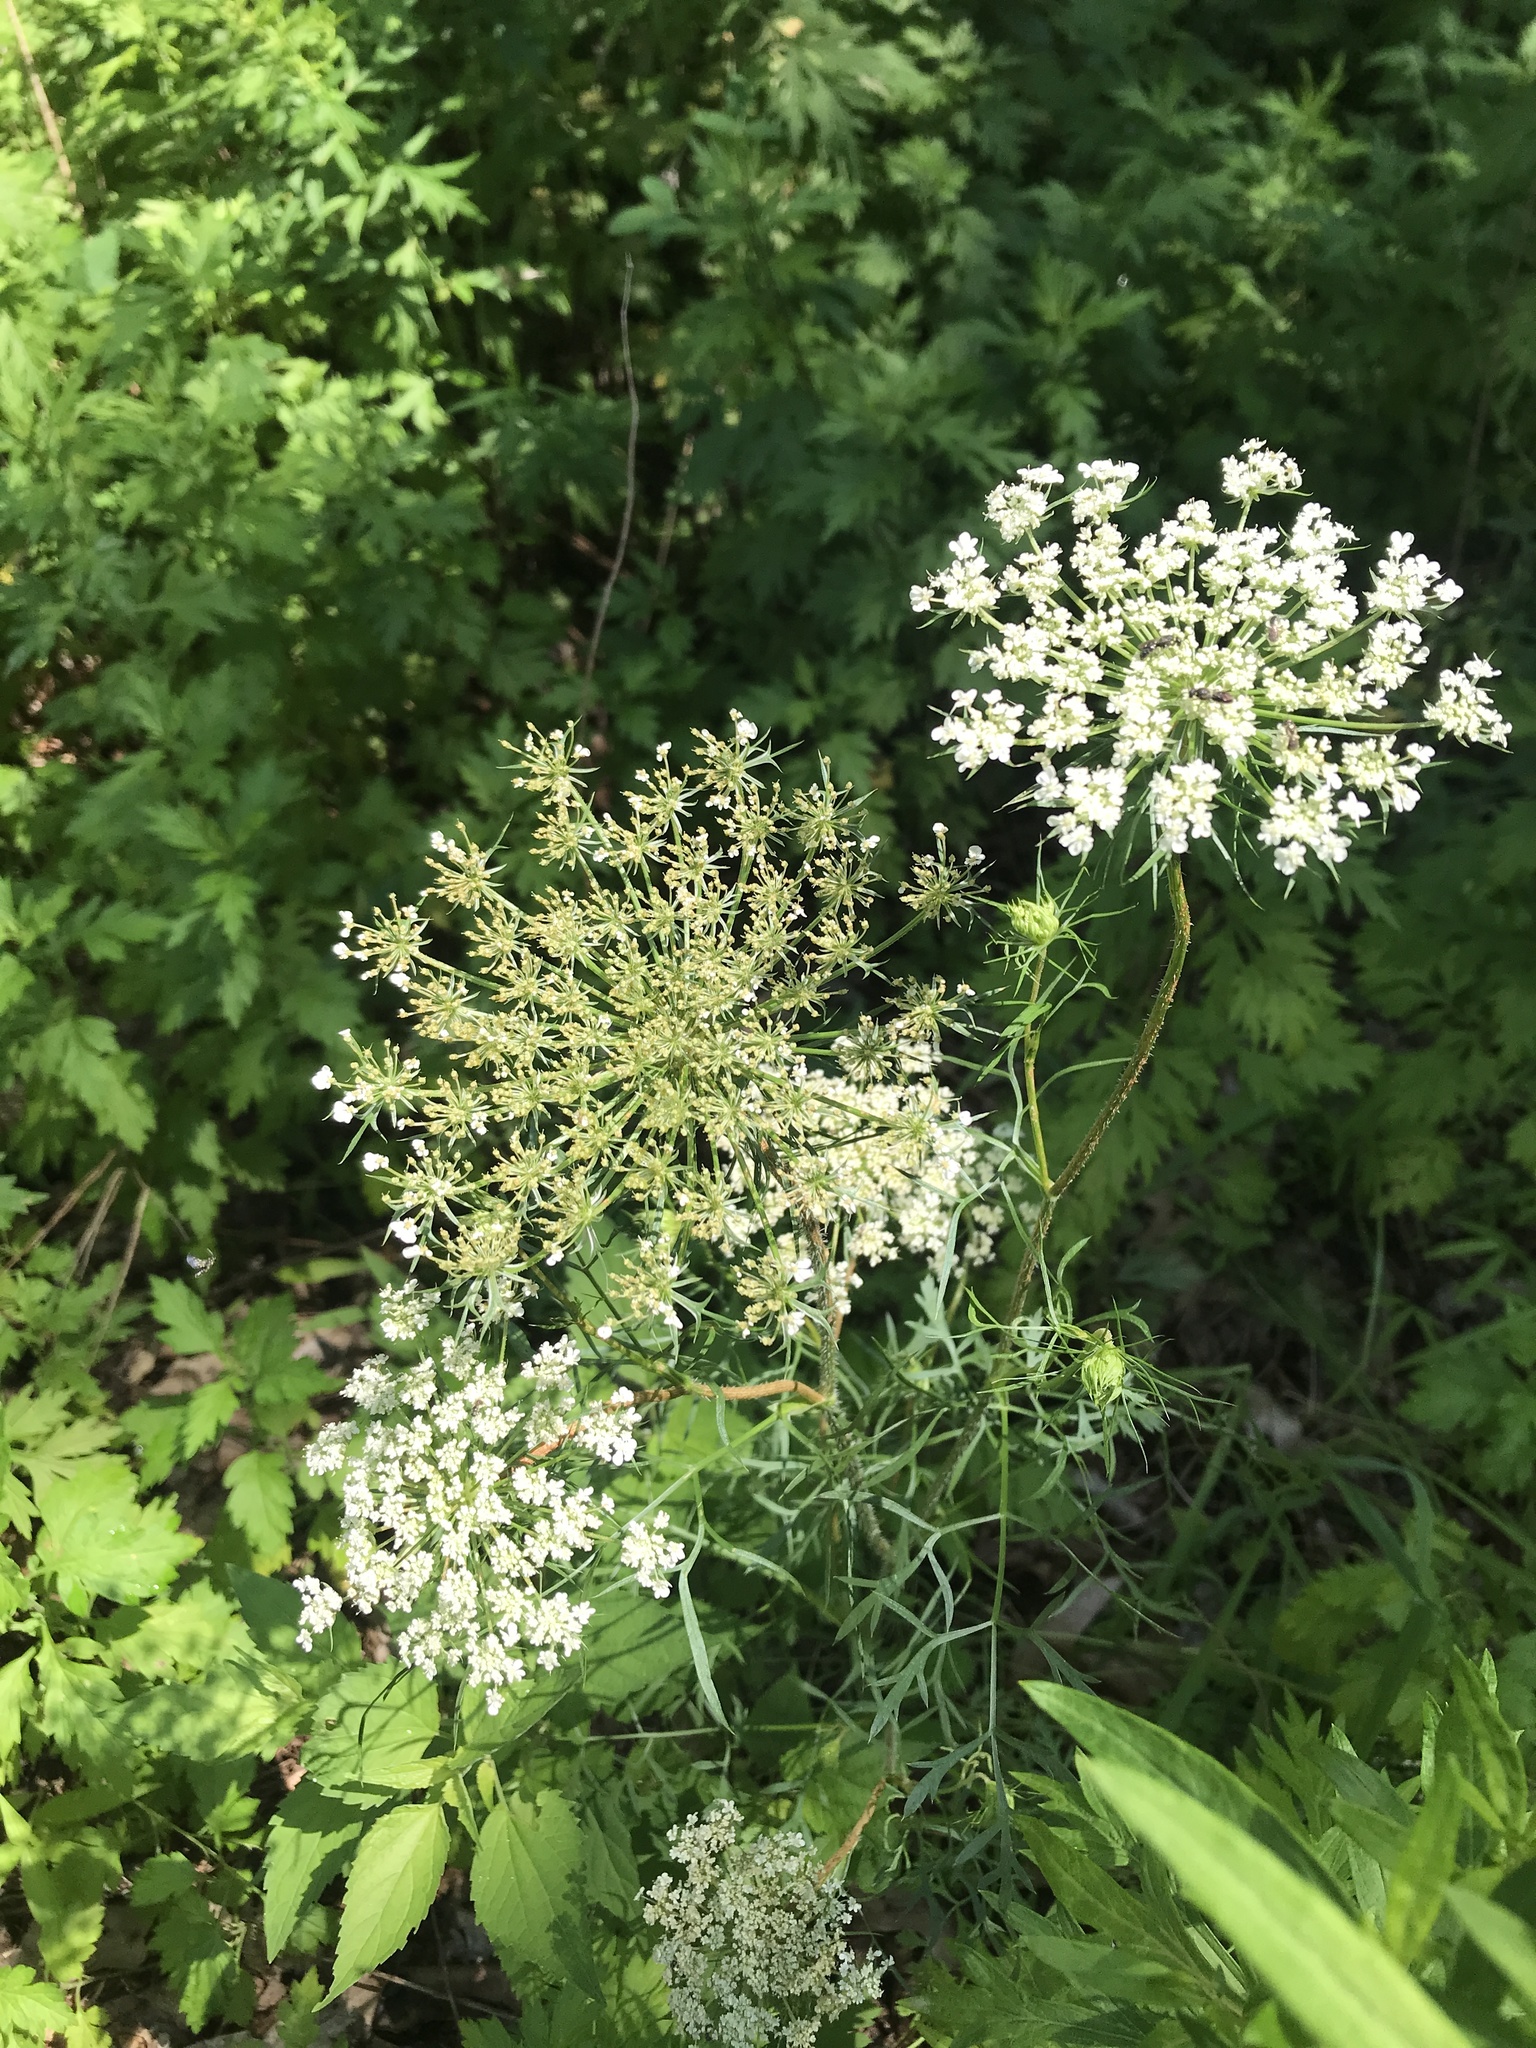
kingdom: Plantae
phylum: Tracheophyta
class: Magnoliopsida
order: Apiales
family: Apiaceae
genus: Daucus
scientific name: Daucus carota
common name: Wild carrot
